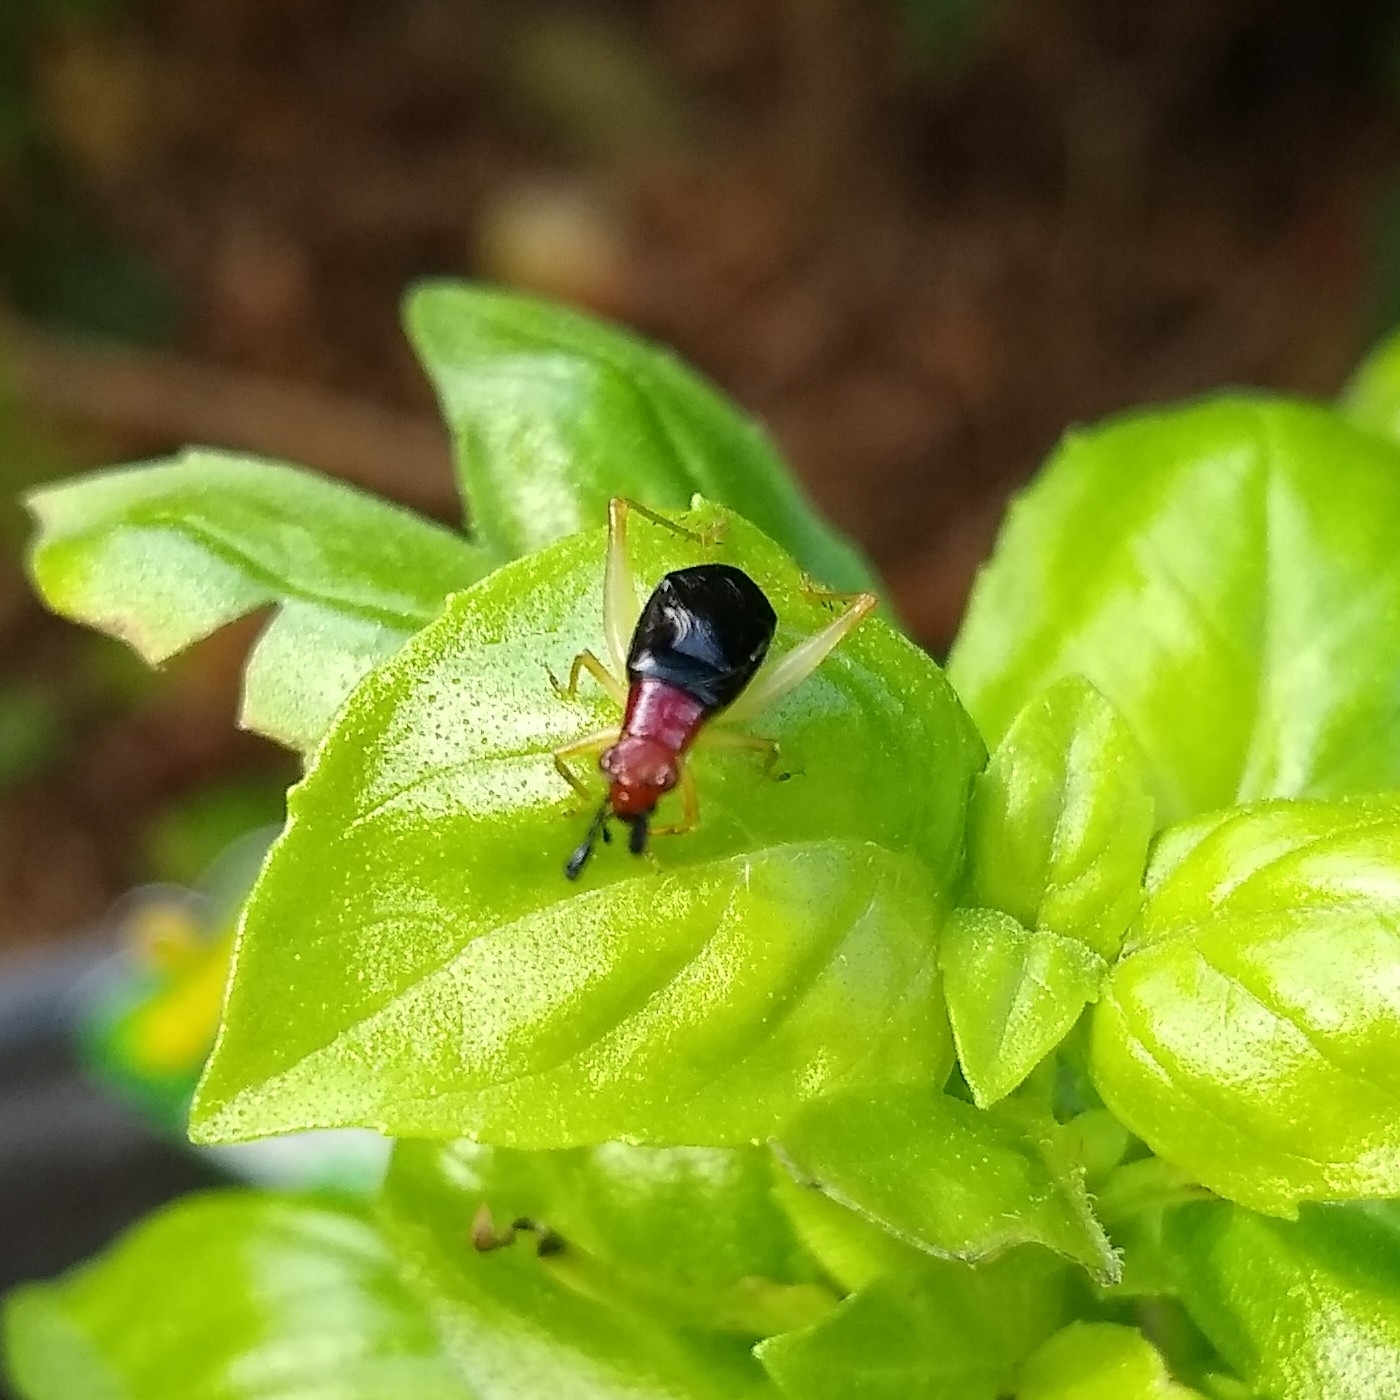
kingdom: Animalia
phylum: Arthropoda
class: Insecta
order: Orthoptera
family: Trigonidiidae
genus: Phyllopalpus
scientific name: Phyllopalpus pulchellus
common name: Handsome trig
